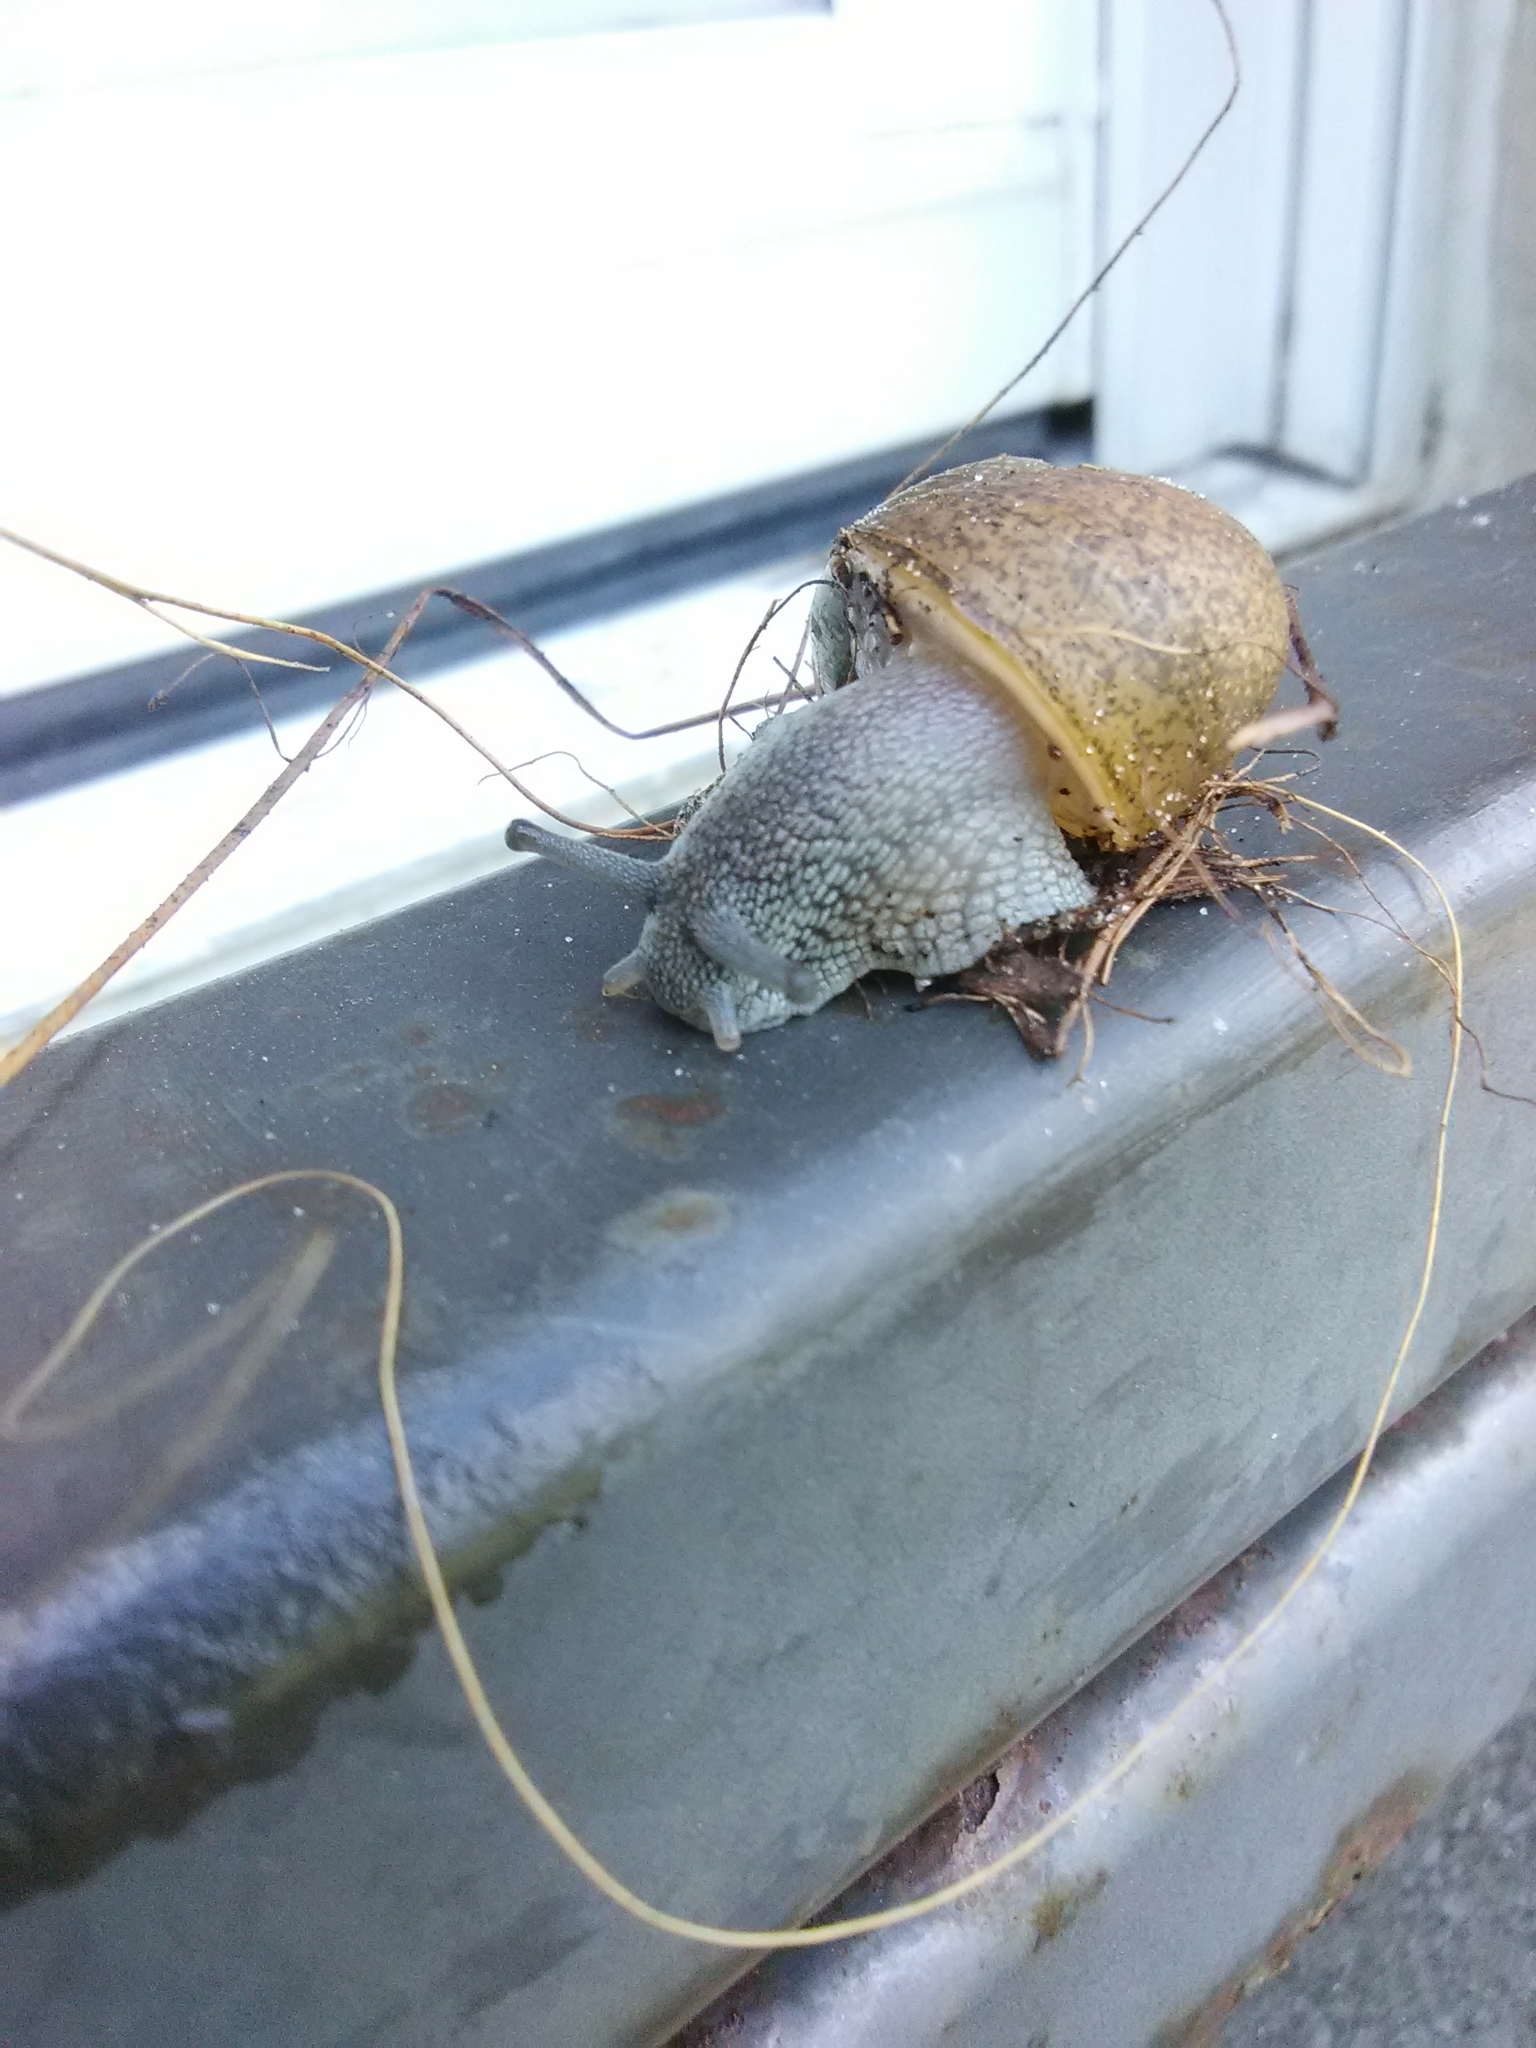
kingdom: Animalia
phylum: Mollusca
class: Gastropoda
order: Stylommatophora
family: Zachrysiidae
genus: Zachrysia
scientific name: Zachrysia provisoria
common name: Garden zachrysia
